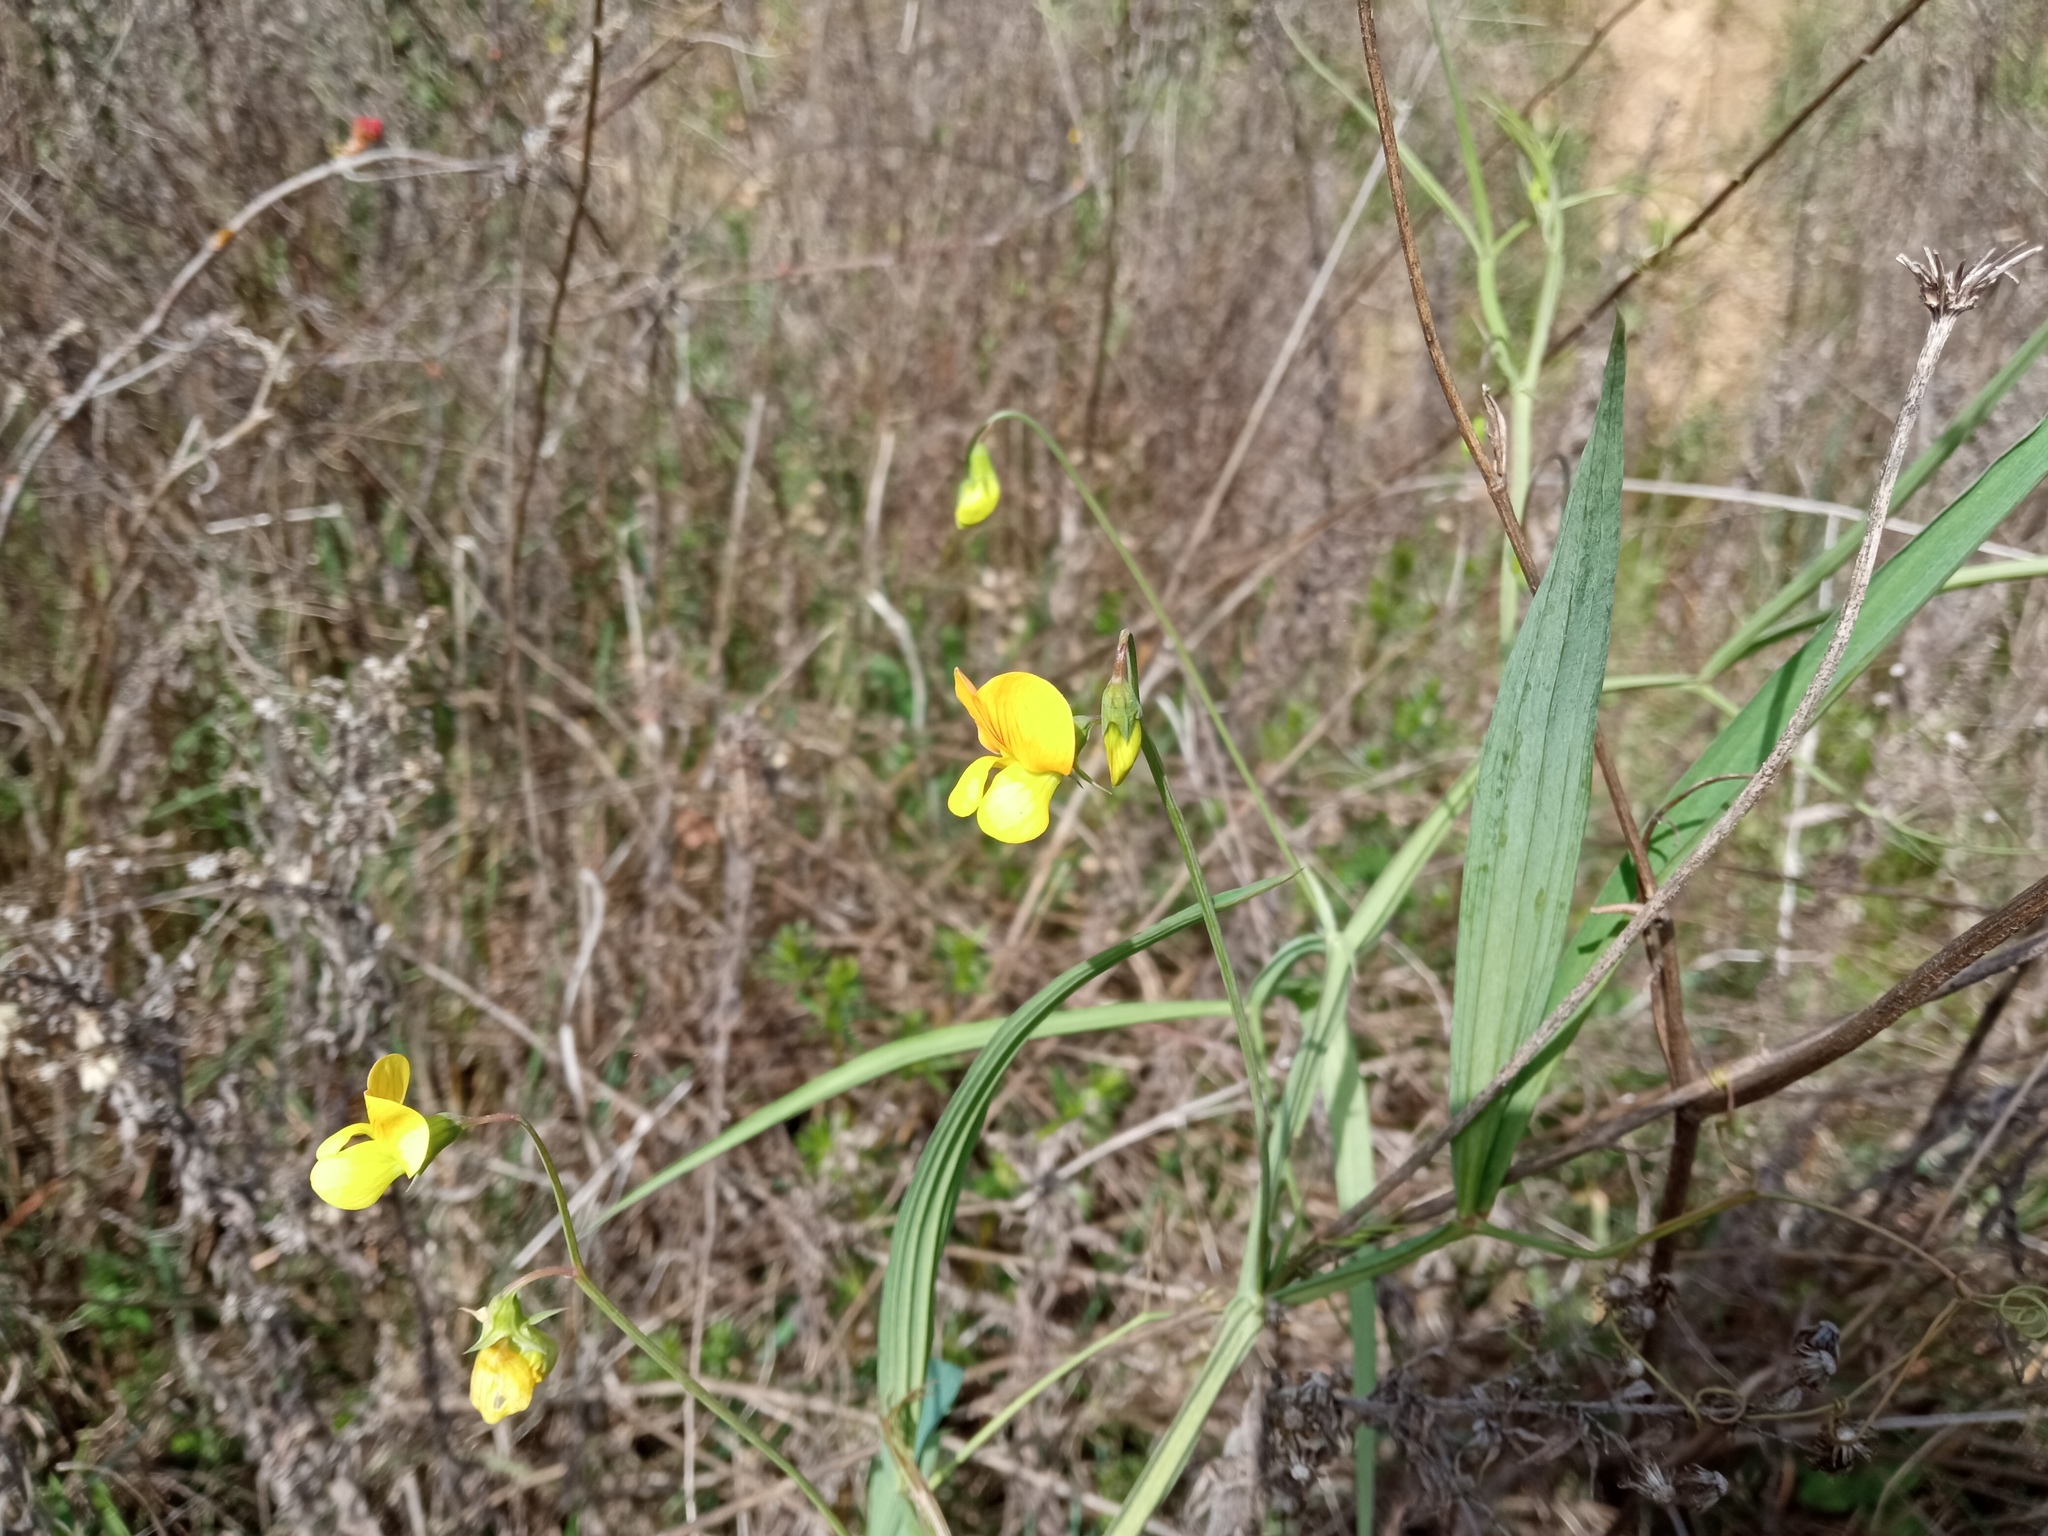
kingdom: Plantae
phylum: Tracheophyta
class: Magnoliopsida
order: Fabales
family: Fabaceae
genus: Lathyrus
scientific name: Lathyrus annuus
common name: Fodder pea
